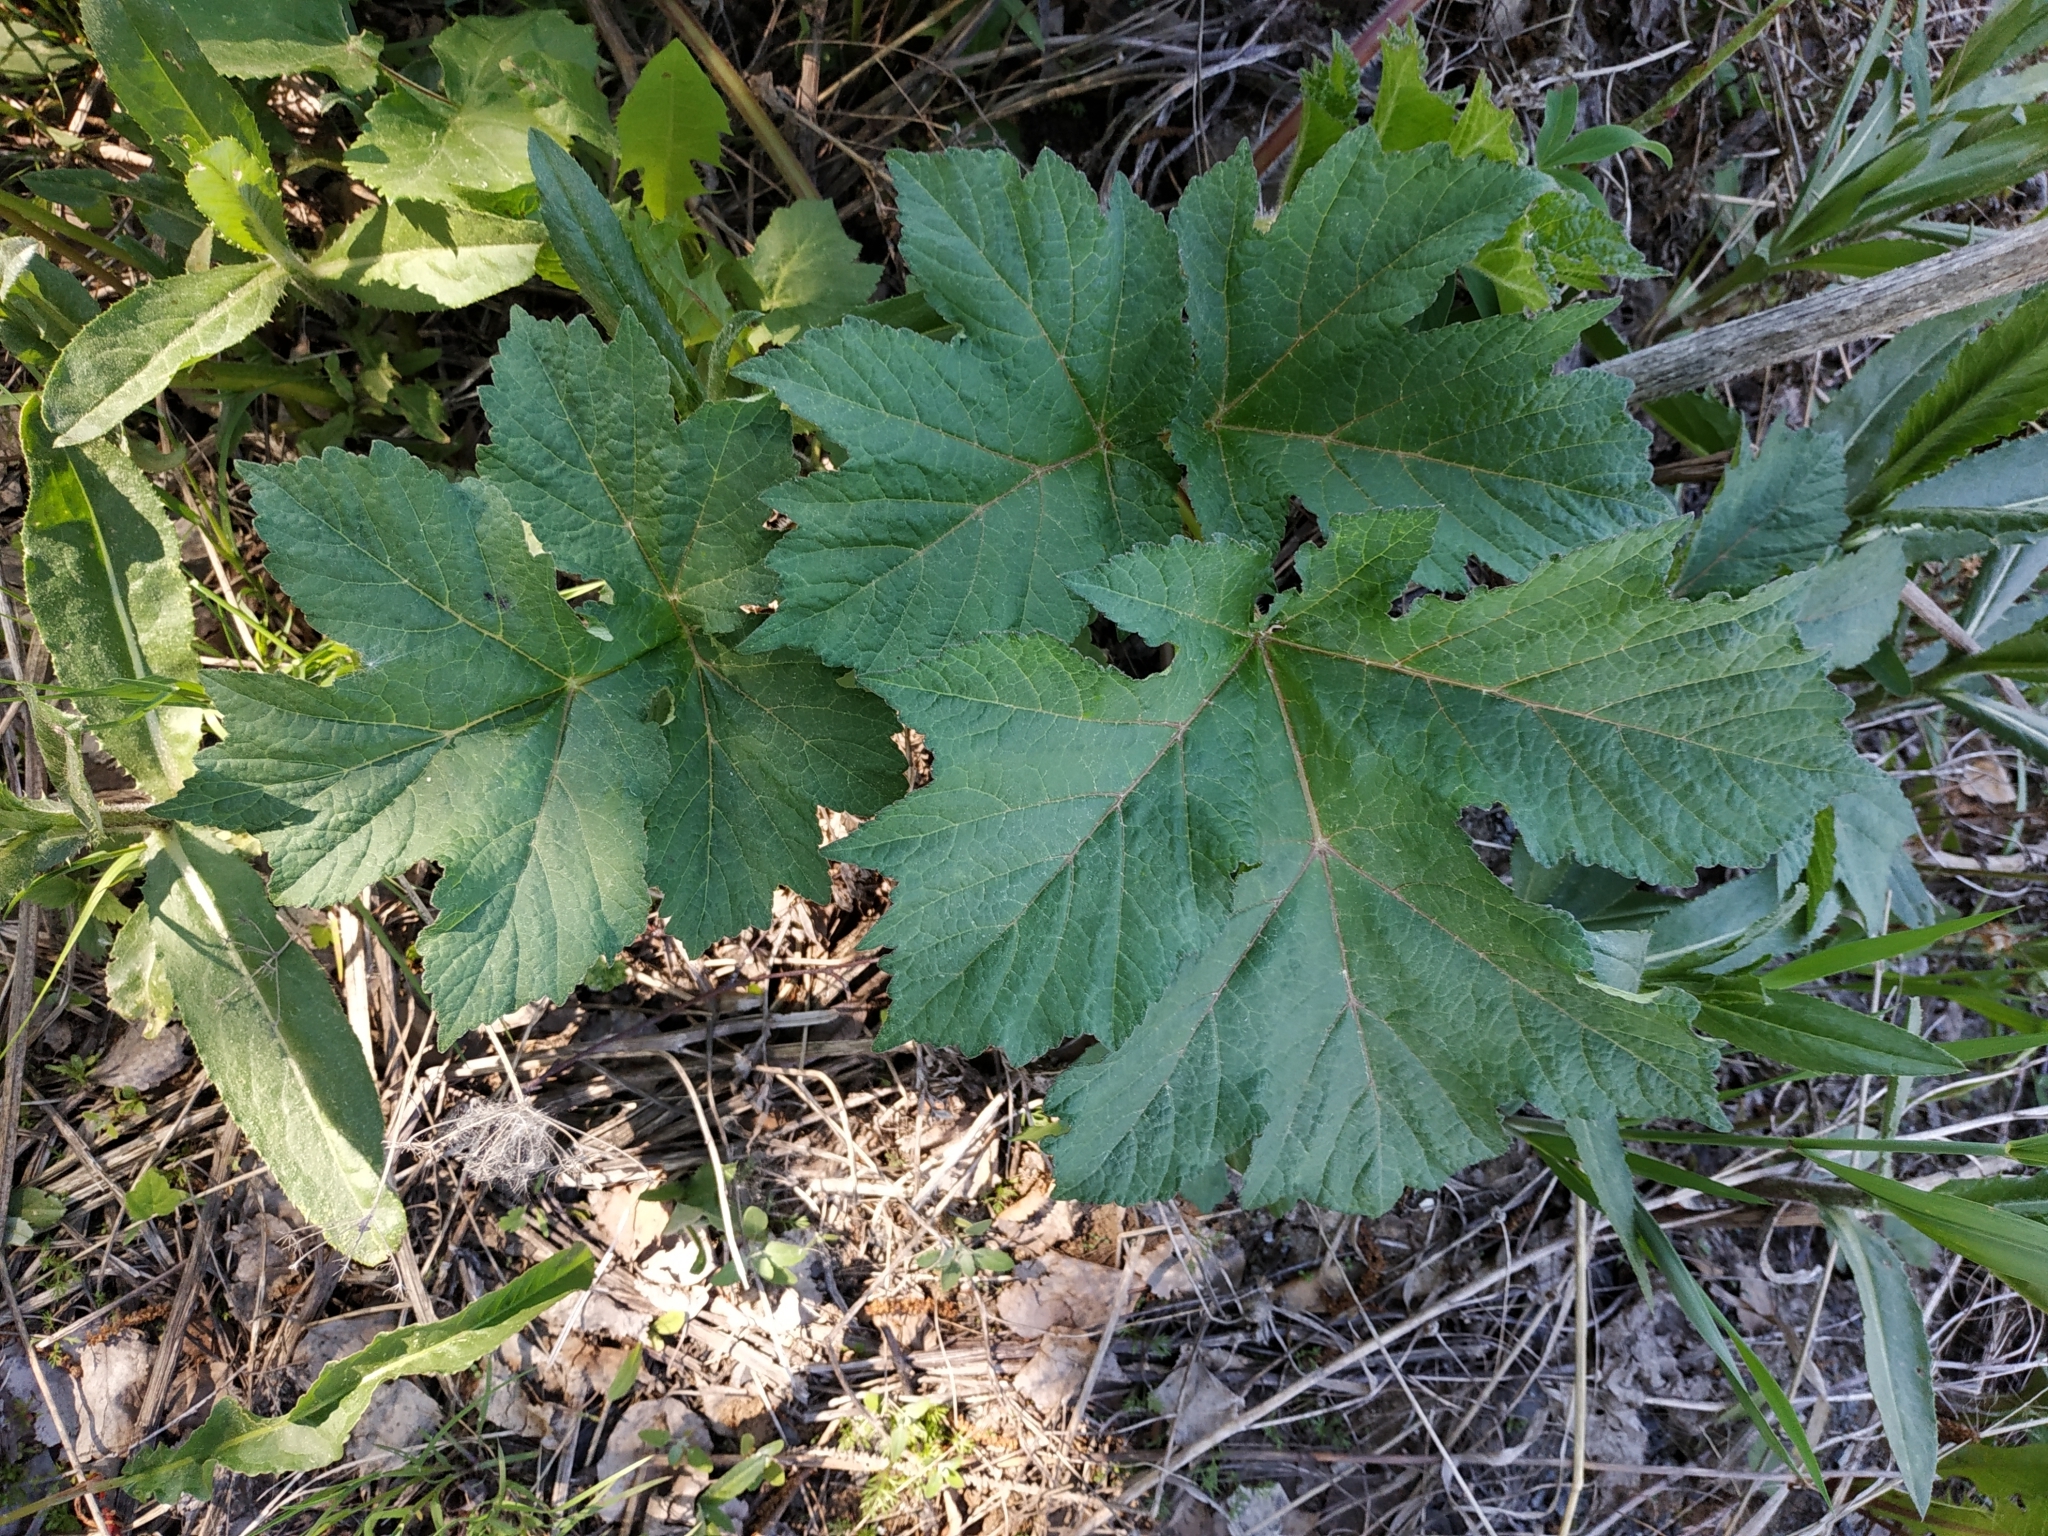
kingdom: Plantae
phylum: Tracheophyta
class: Magnoliopsida
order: Apiales
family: Apiaceae
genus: Heracleum
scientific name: Heracleum sphondylium
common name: Hogweed
